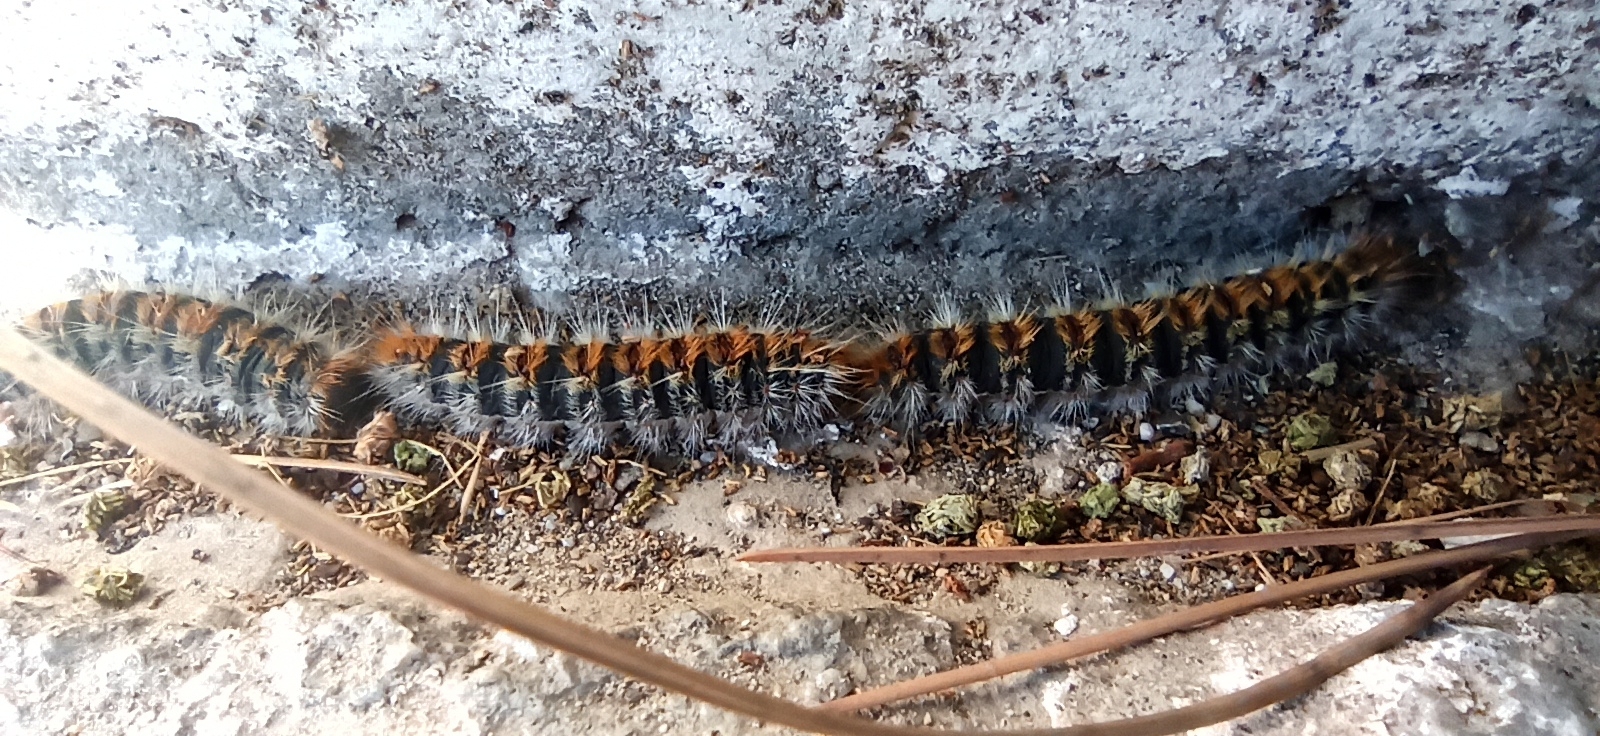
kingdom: Animalia
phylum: Arthropoda
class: Insecta
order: Lepidoptera
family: Notodontidae
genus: Thaumetopoea
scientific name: Thaumetopoea pityocampa
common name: Pine processionary
